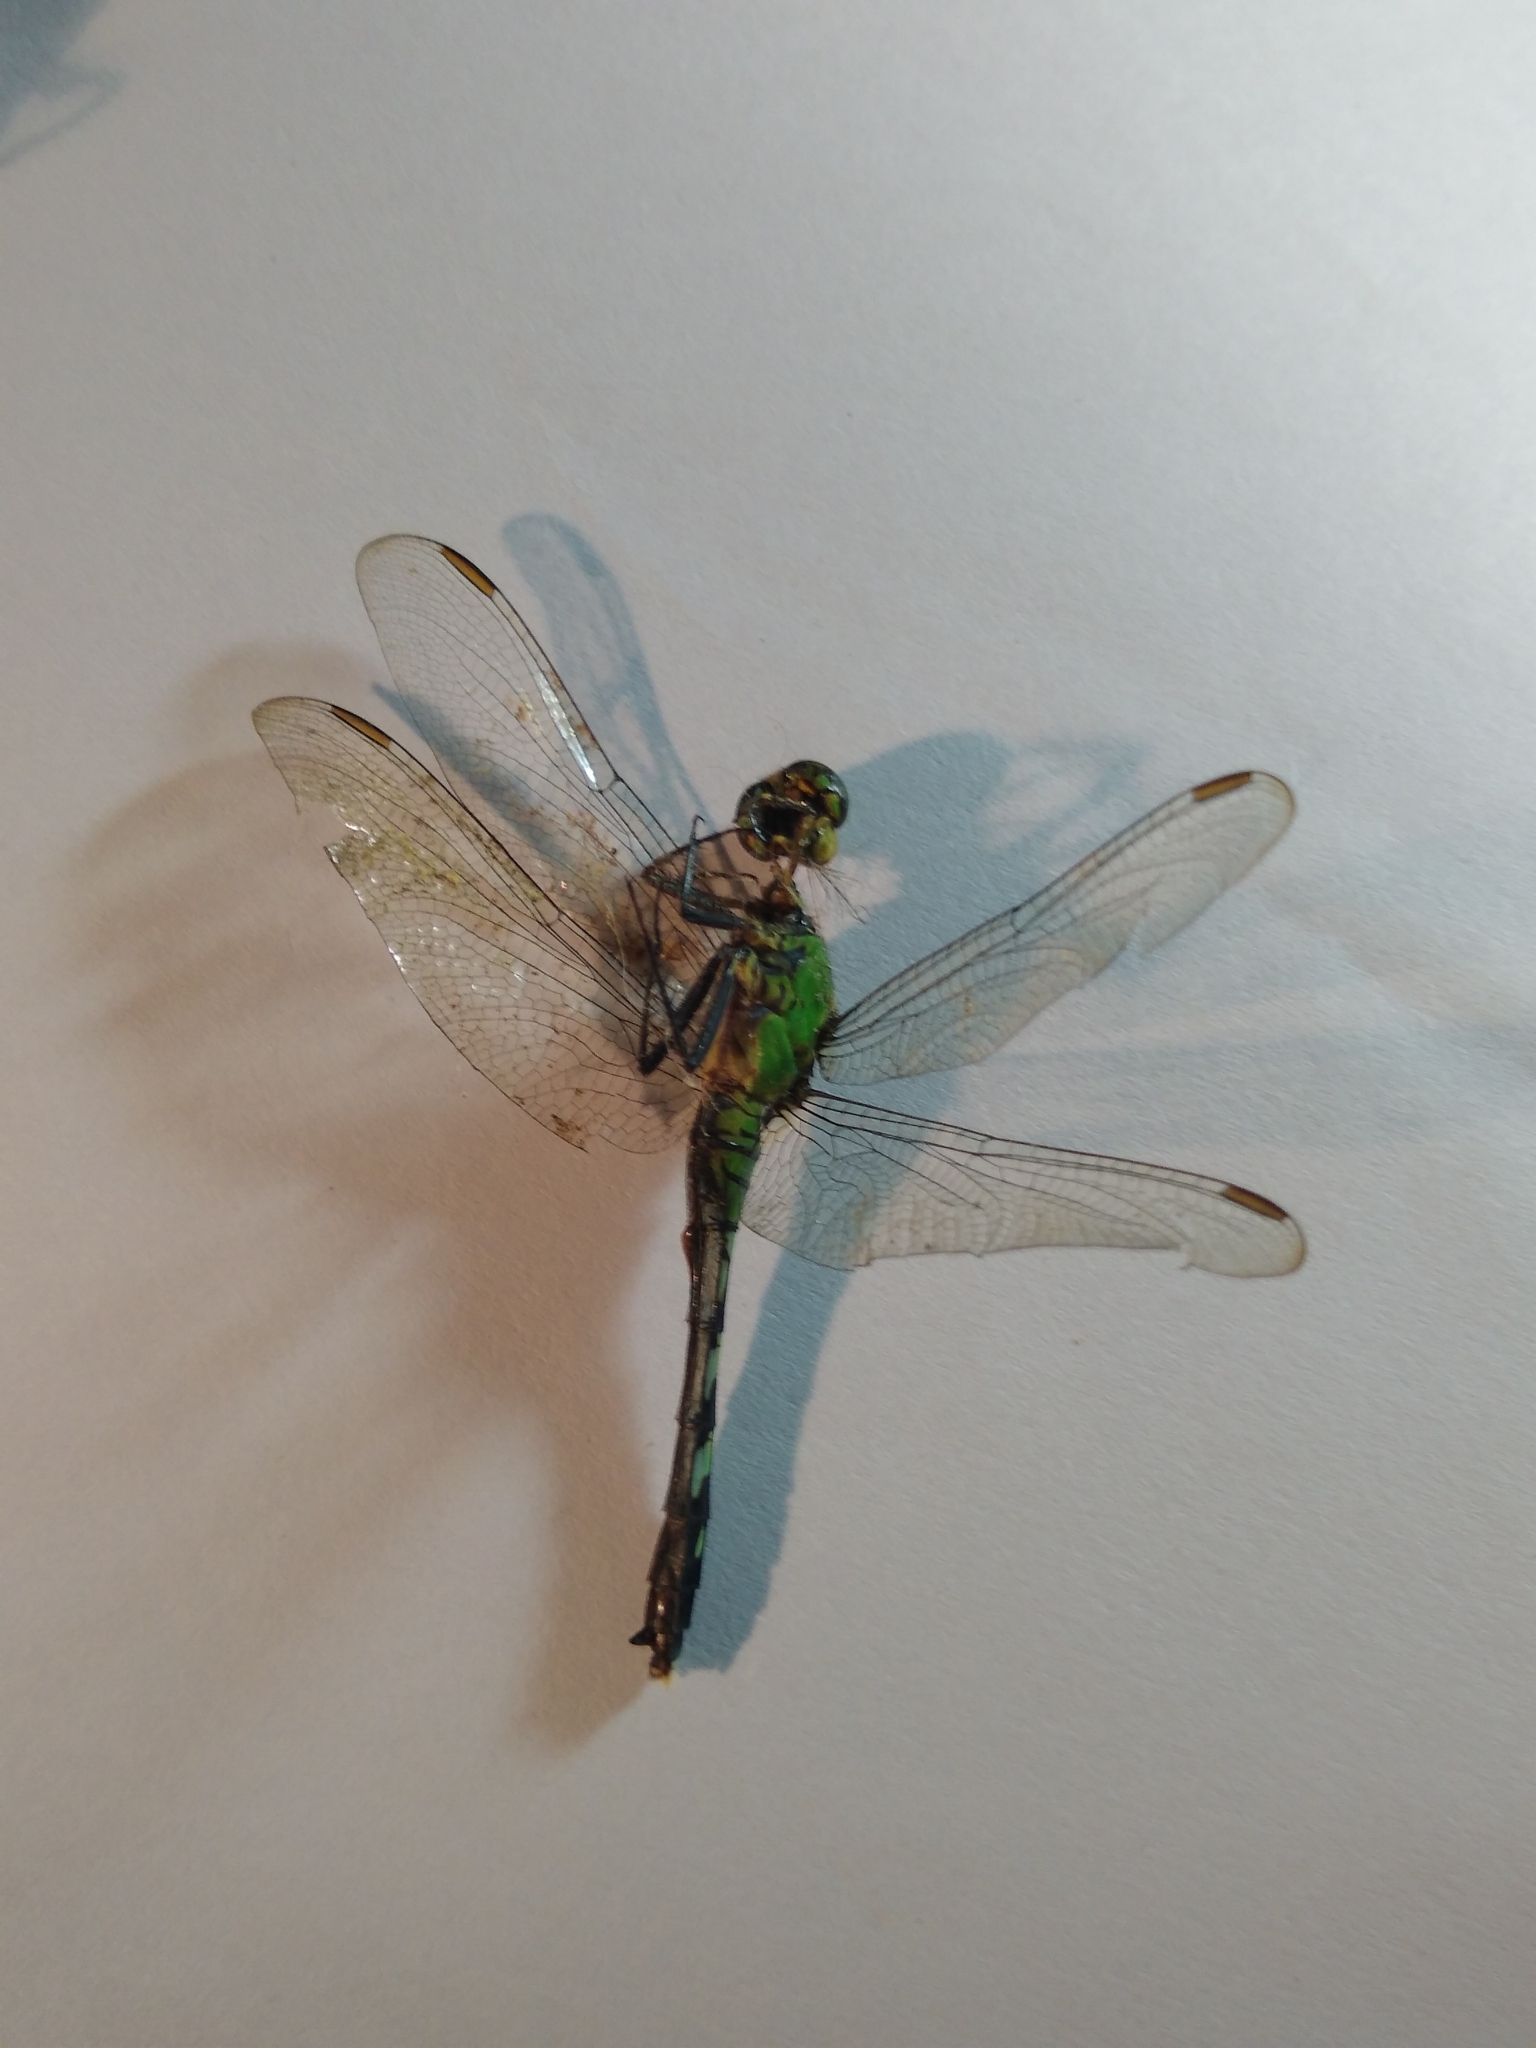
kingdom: Animalia
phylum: Arthropoda
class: Insecta
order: Odonata
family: Libellulidae
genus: Erythemis
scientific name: Erythemis simplicicollis
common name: Eastern pondhawk
